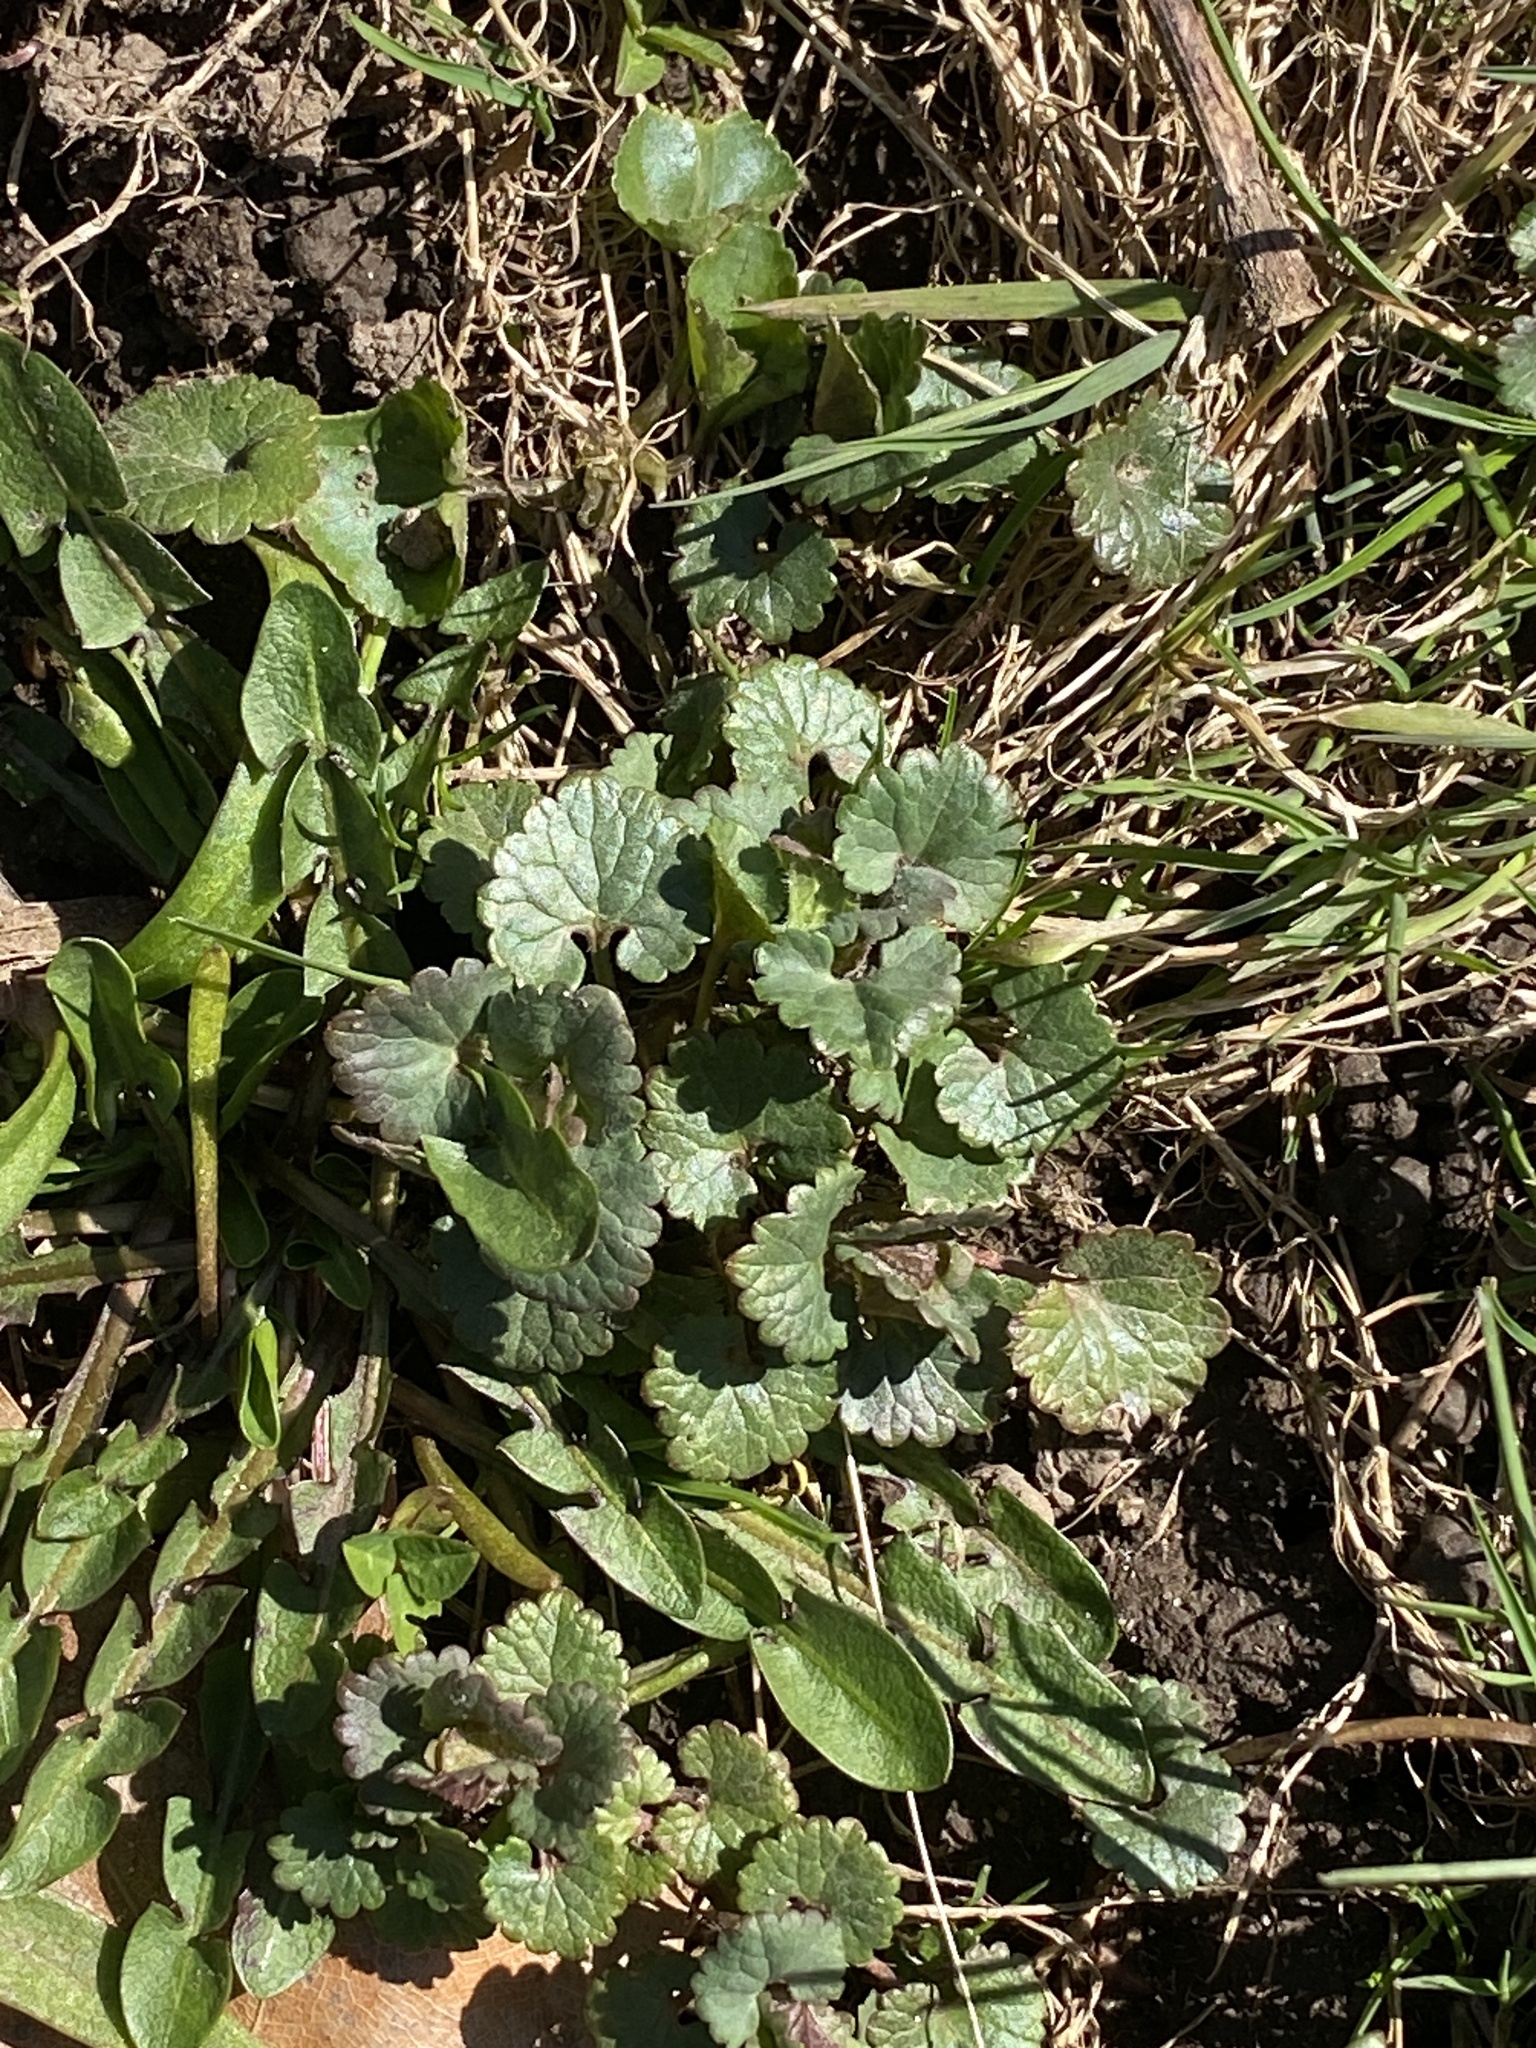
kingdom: Plantae
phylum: Tracheophyta
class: Magnoliopsida
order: Lamiales
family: Lamiaceae
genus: Glechoma
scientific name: Glechoma hederacea
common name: Ground ivy
